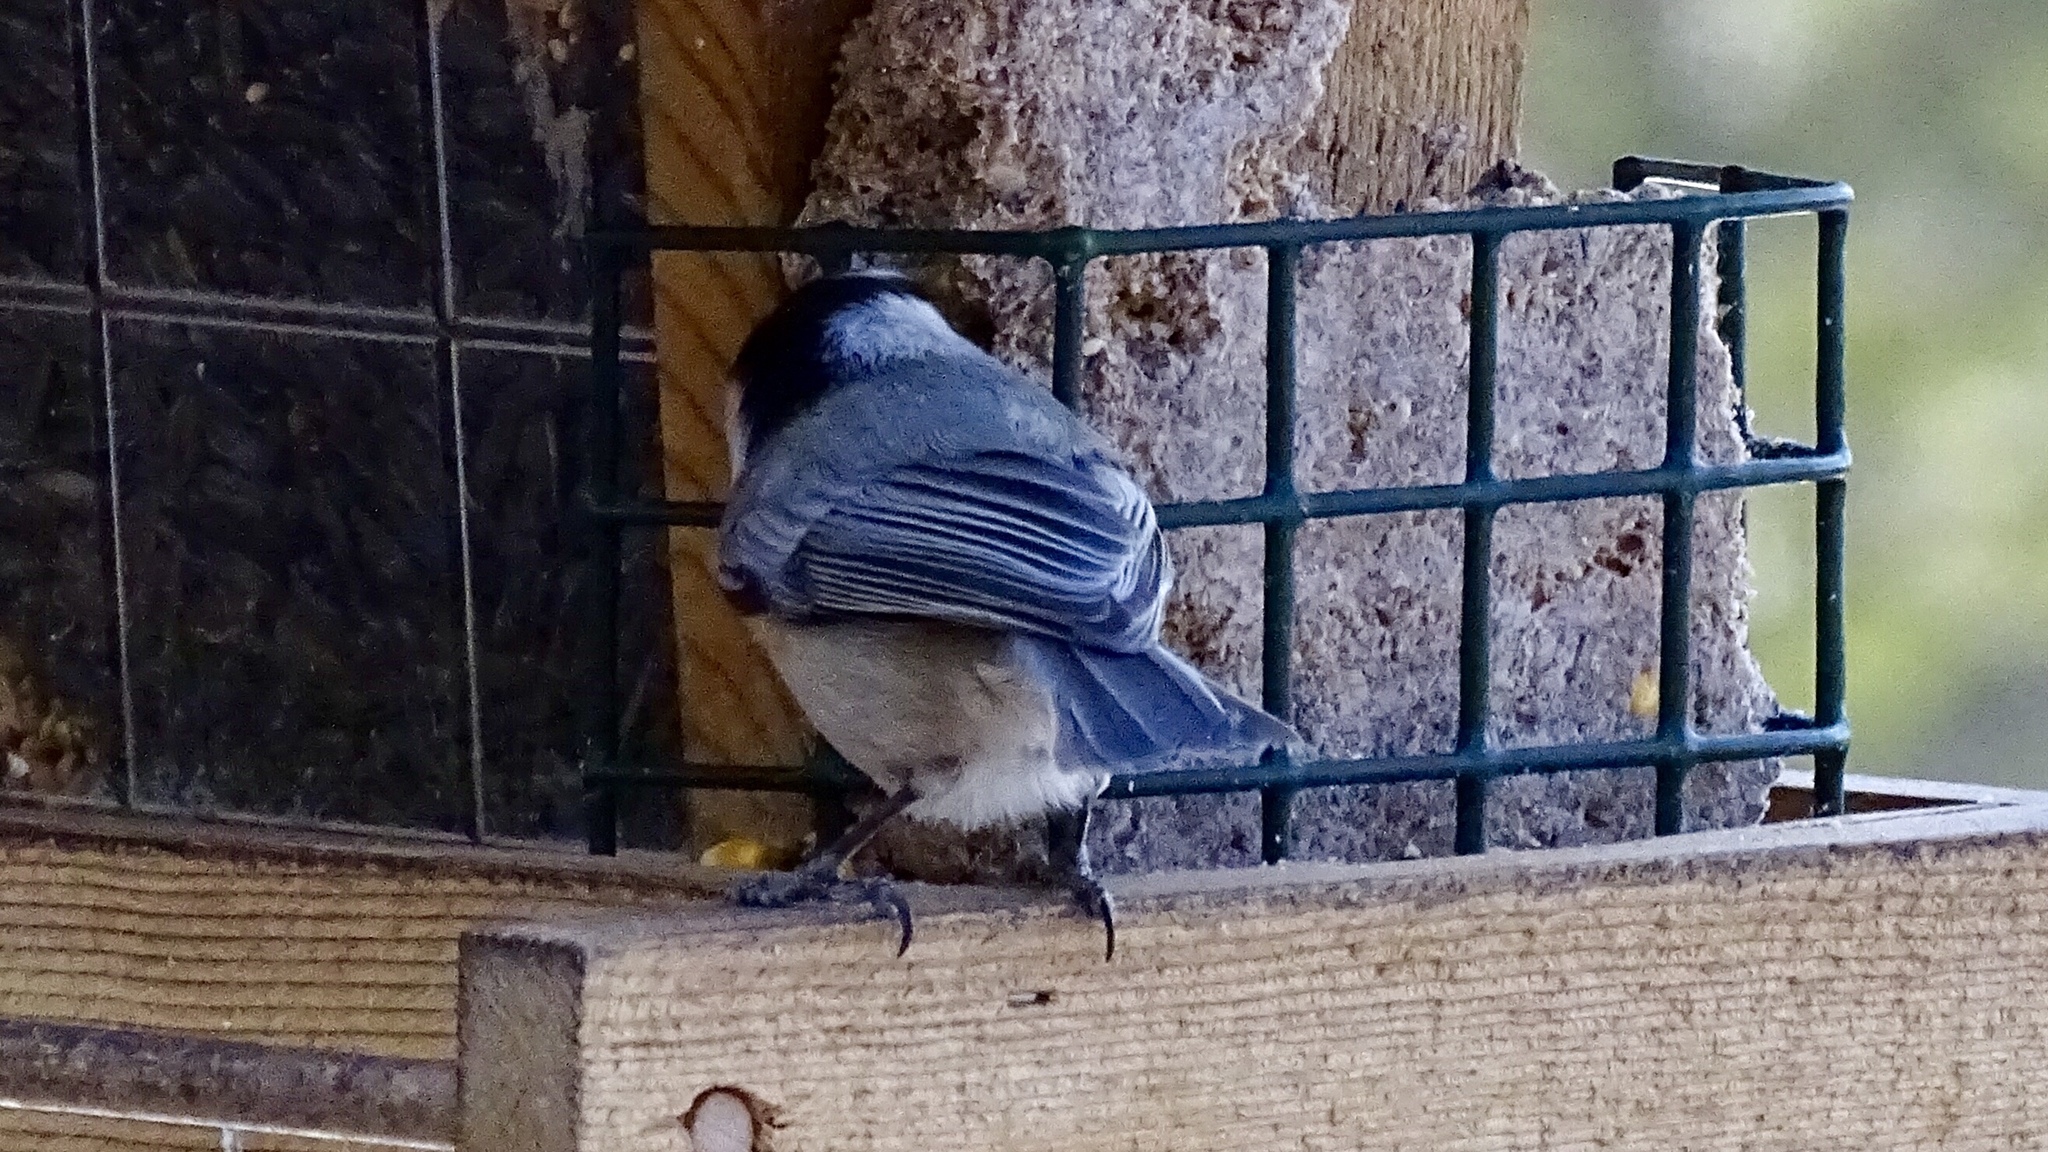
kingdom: Animalia
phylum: Chordata
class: Aves
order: Passeriformes
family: Paridae
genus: Poecile
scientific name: Poecile gambeli
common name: Mountain chickadee
